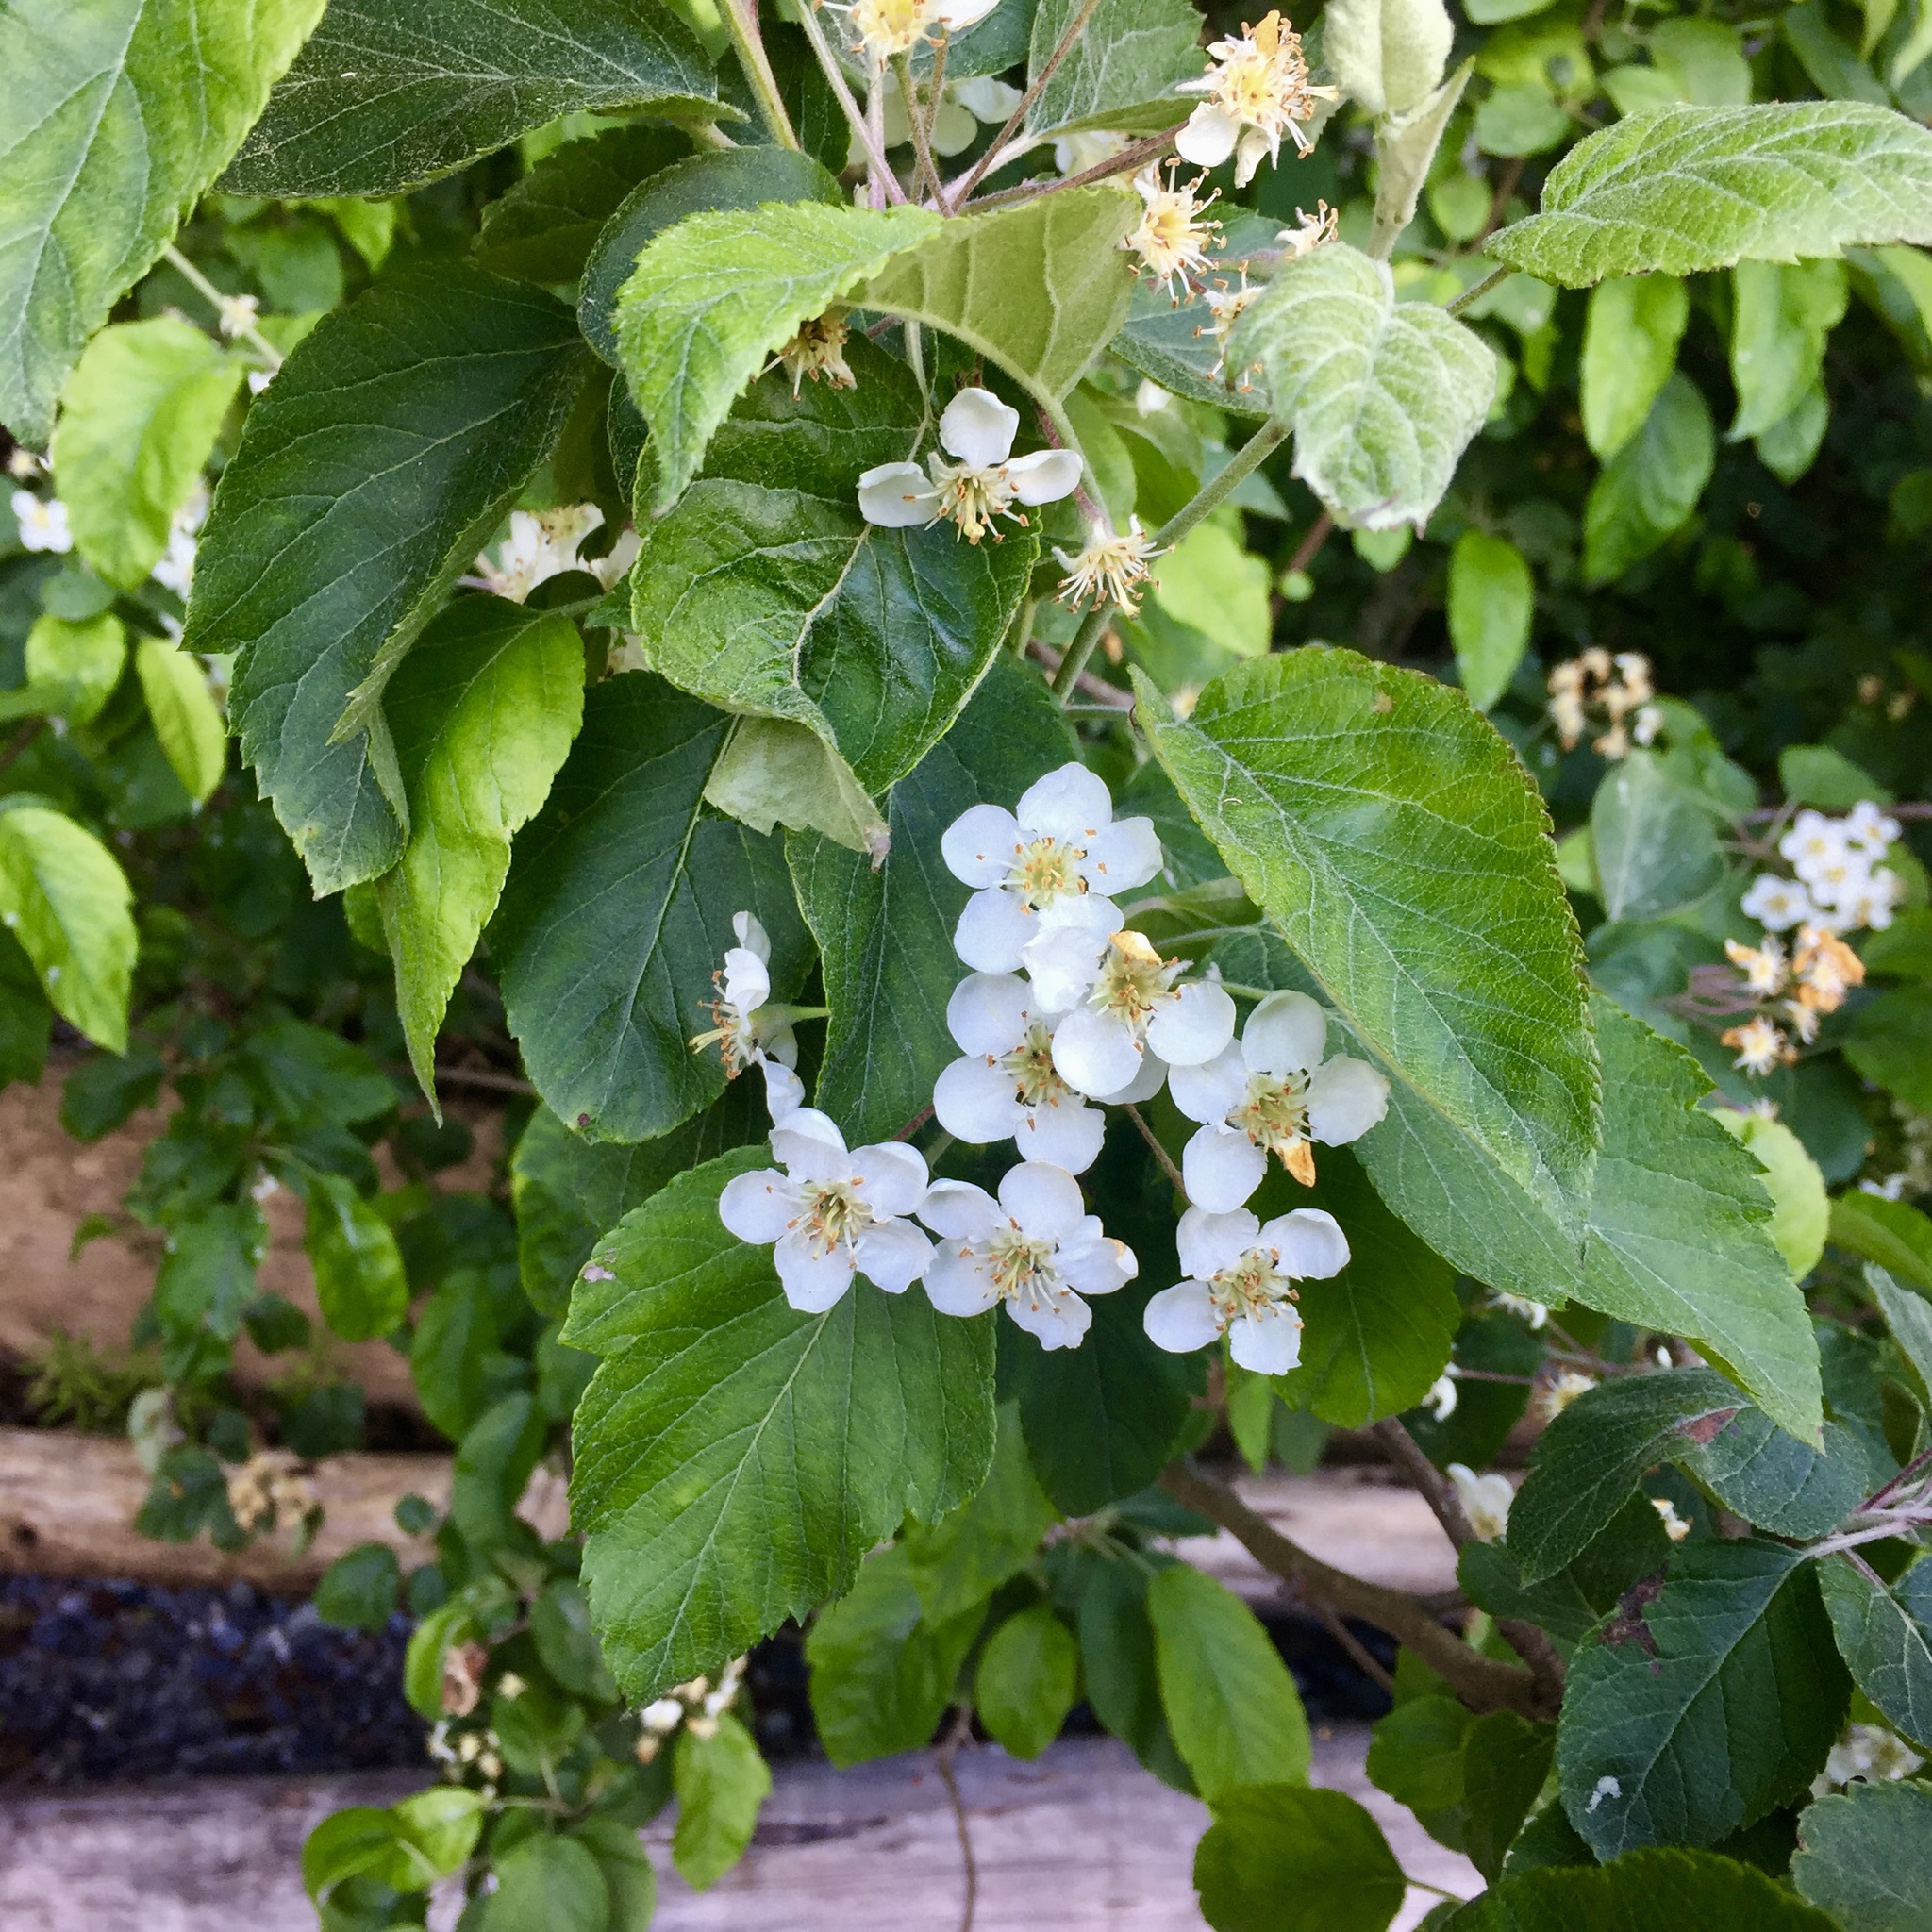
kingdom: Plantae
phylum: Tracheophyta
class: Magnoliopsida
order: Rosales
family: Rosaceae
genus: Malus
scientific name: Malus fusca
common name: Oregon crab apple
